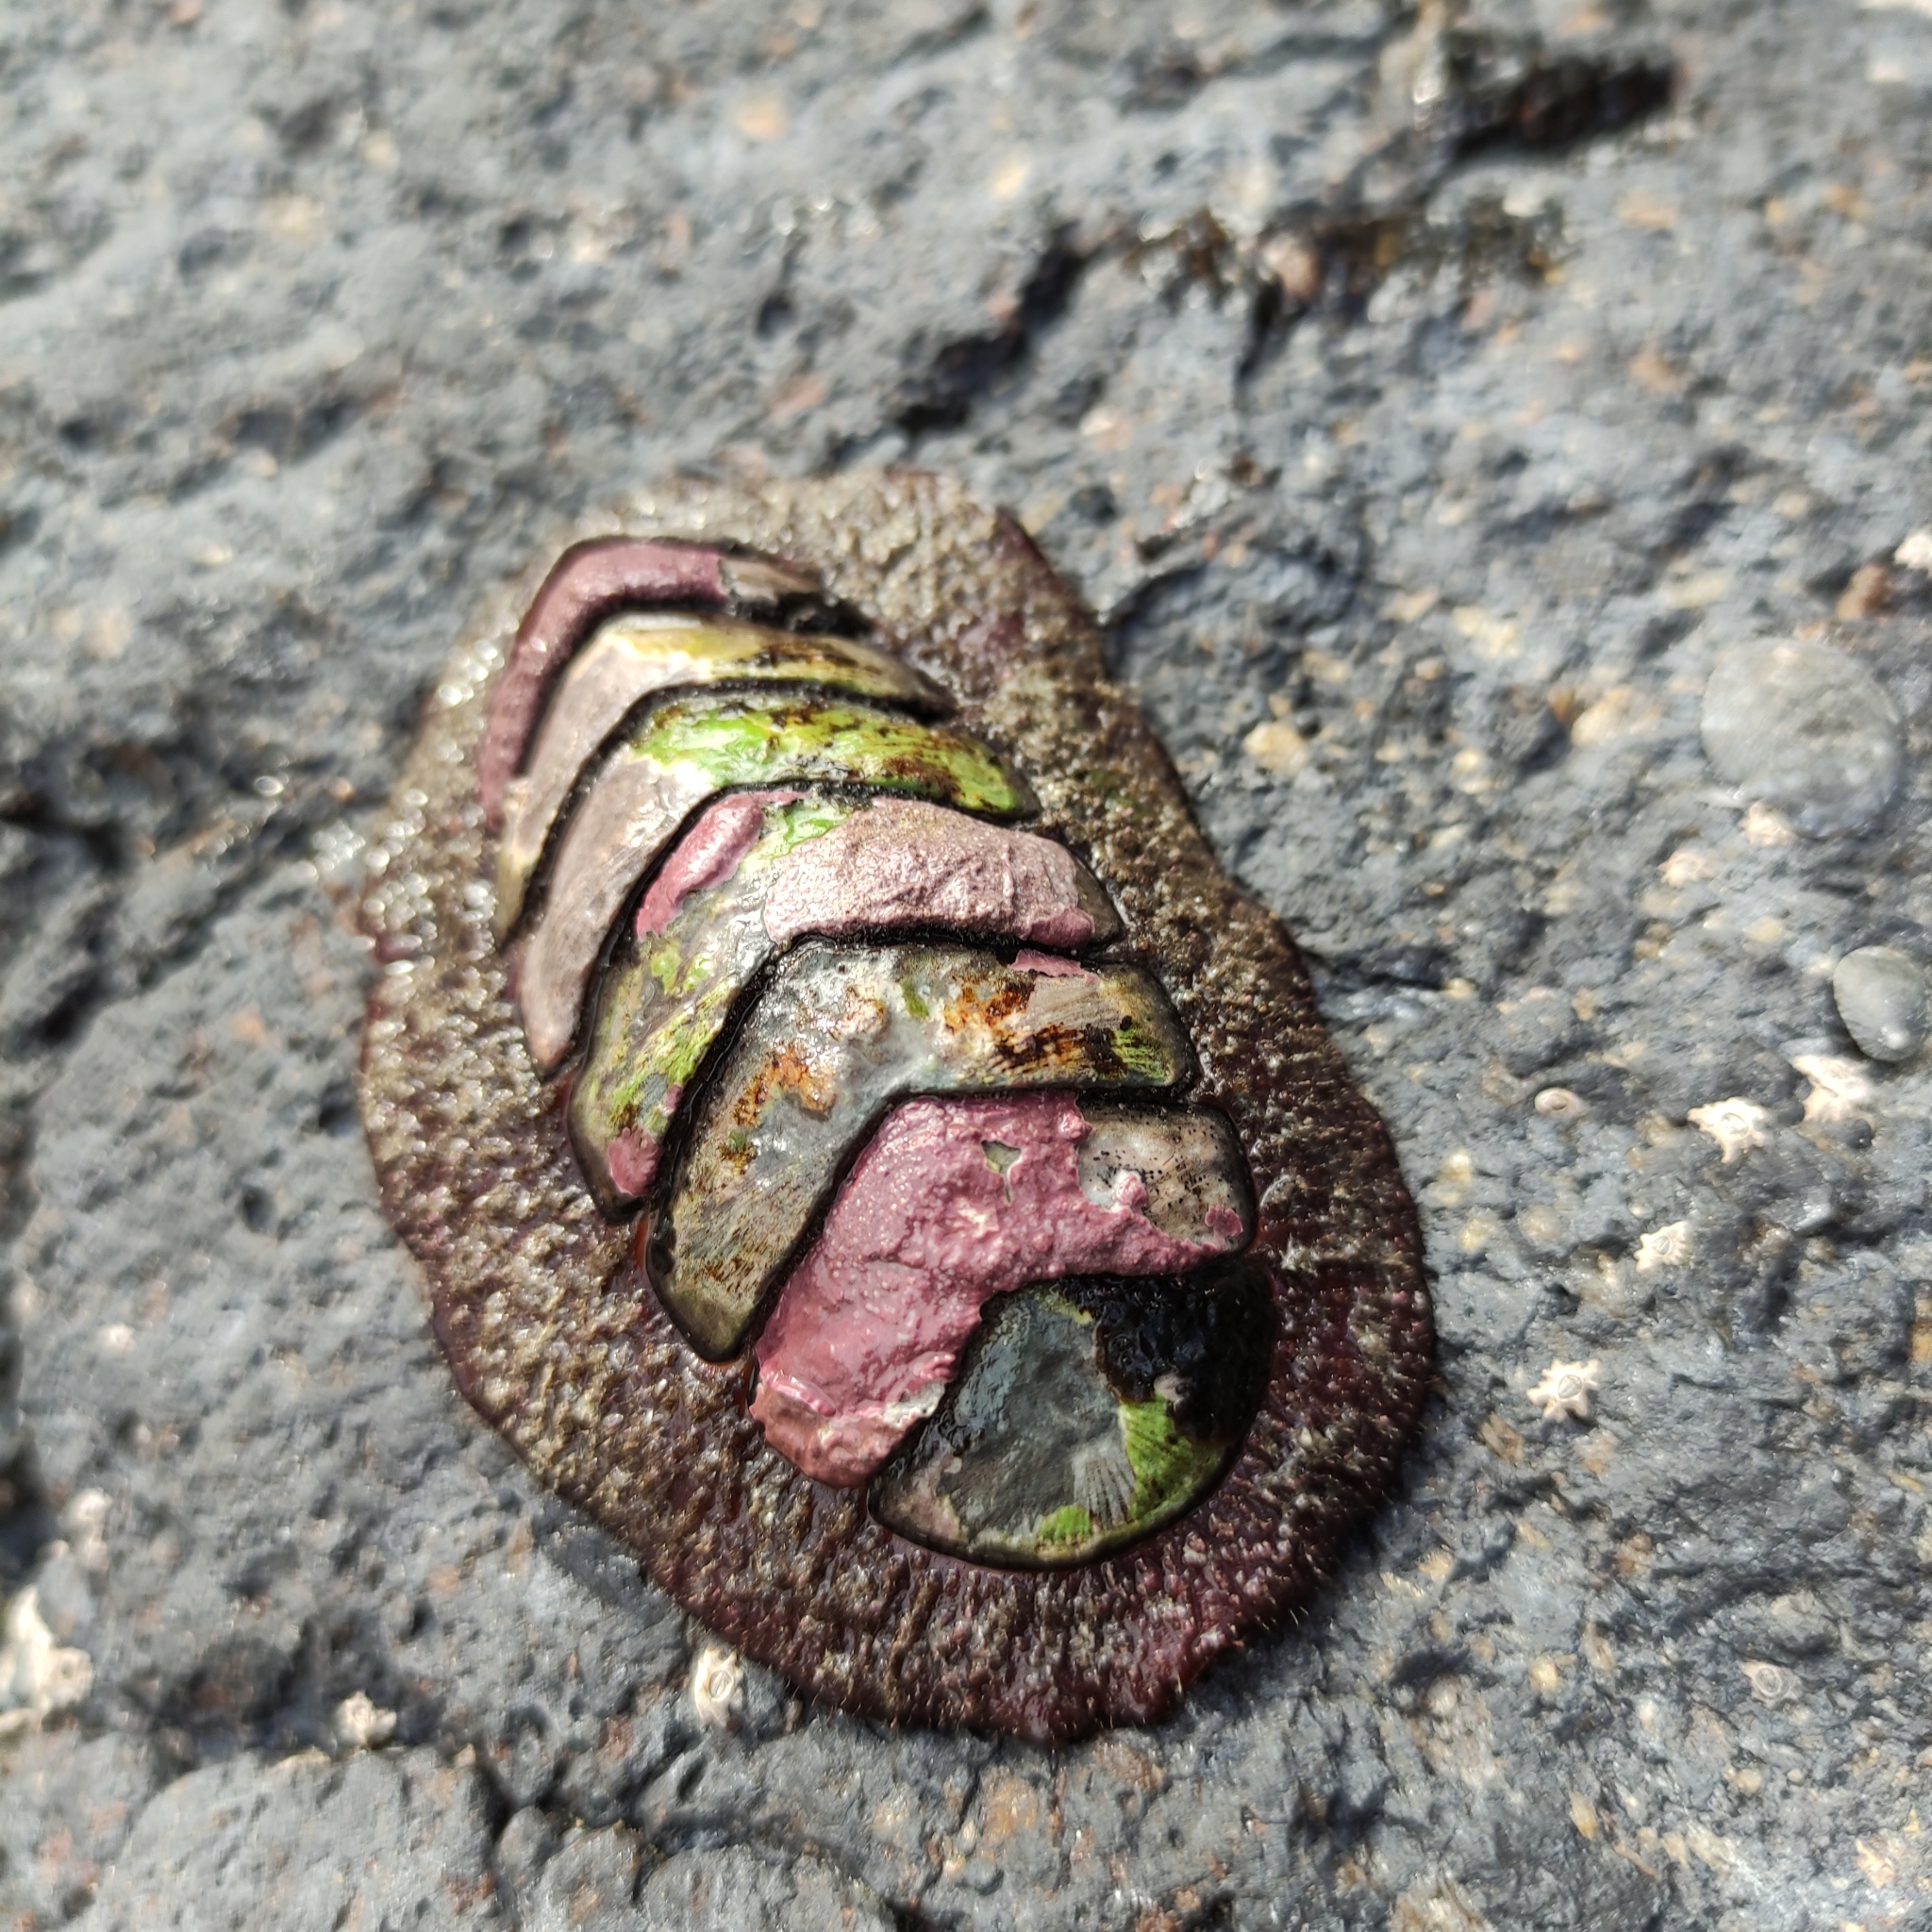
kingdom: Animalia
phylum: Mollusca
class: Polyplacophora
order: Callochitonida
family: Callochitonidae
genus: Eudoxochiton
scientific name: Eudoxochiton nobilis
